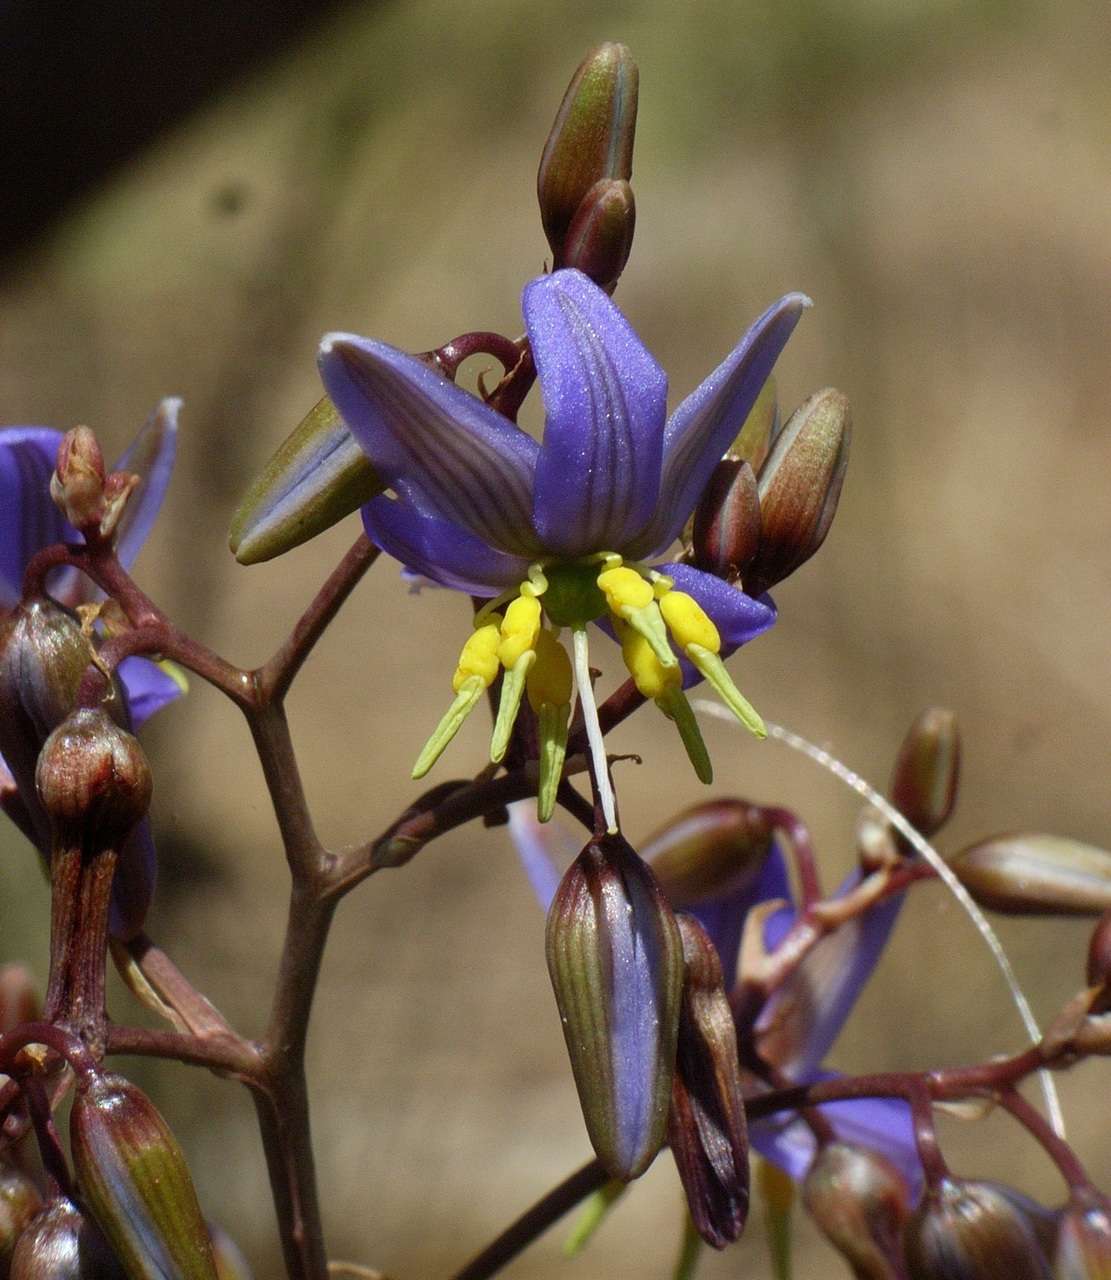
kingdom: Plantae
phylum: Tracheophyta
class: Liliopsida
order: Asparagales
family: Asphodelaceae
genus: Dianella
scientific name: Dianella longifolia
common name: Blue flax-lily
